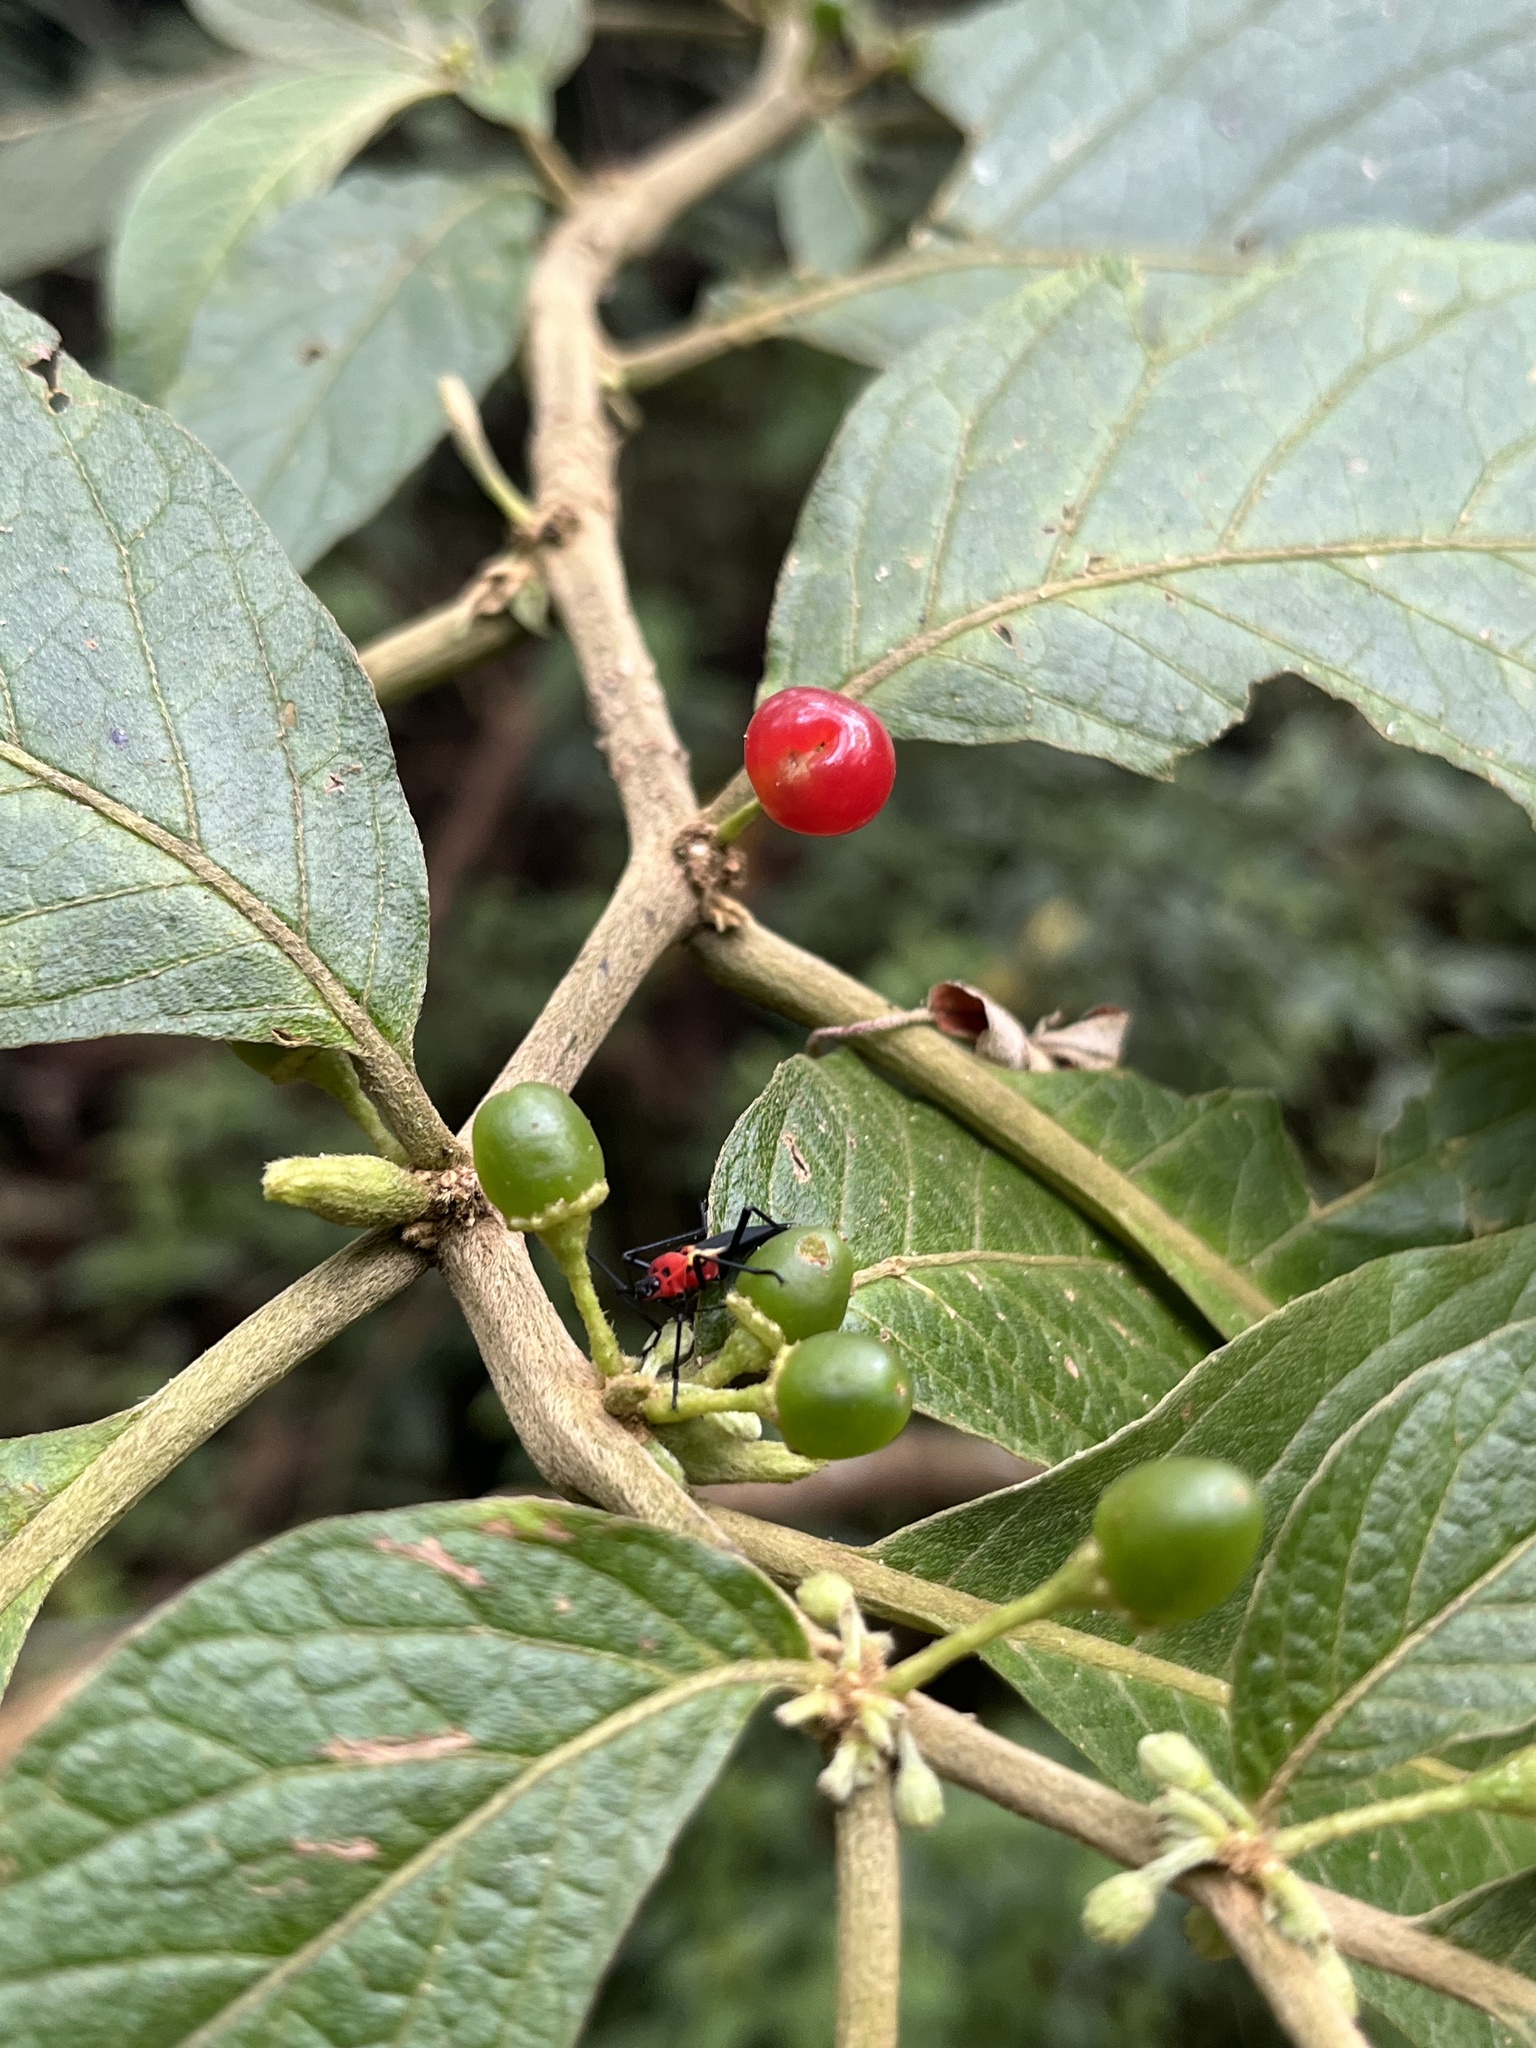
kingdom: Plantae
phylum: Tracheophyta
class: Magnoliopsida
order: Solanales
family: Solanaceae
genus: Lycianthes
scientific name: Lycianthes radiata
